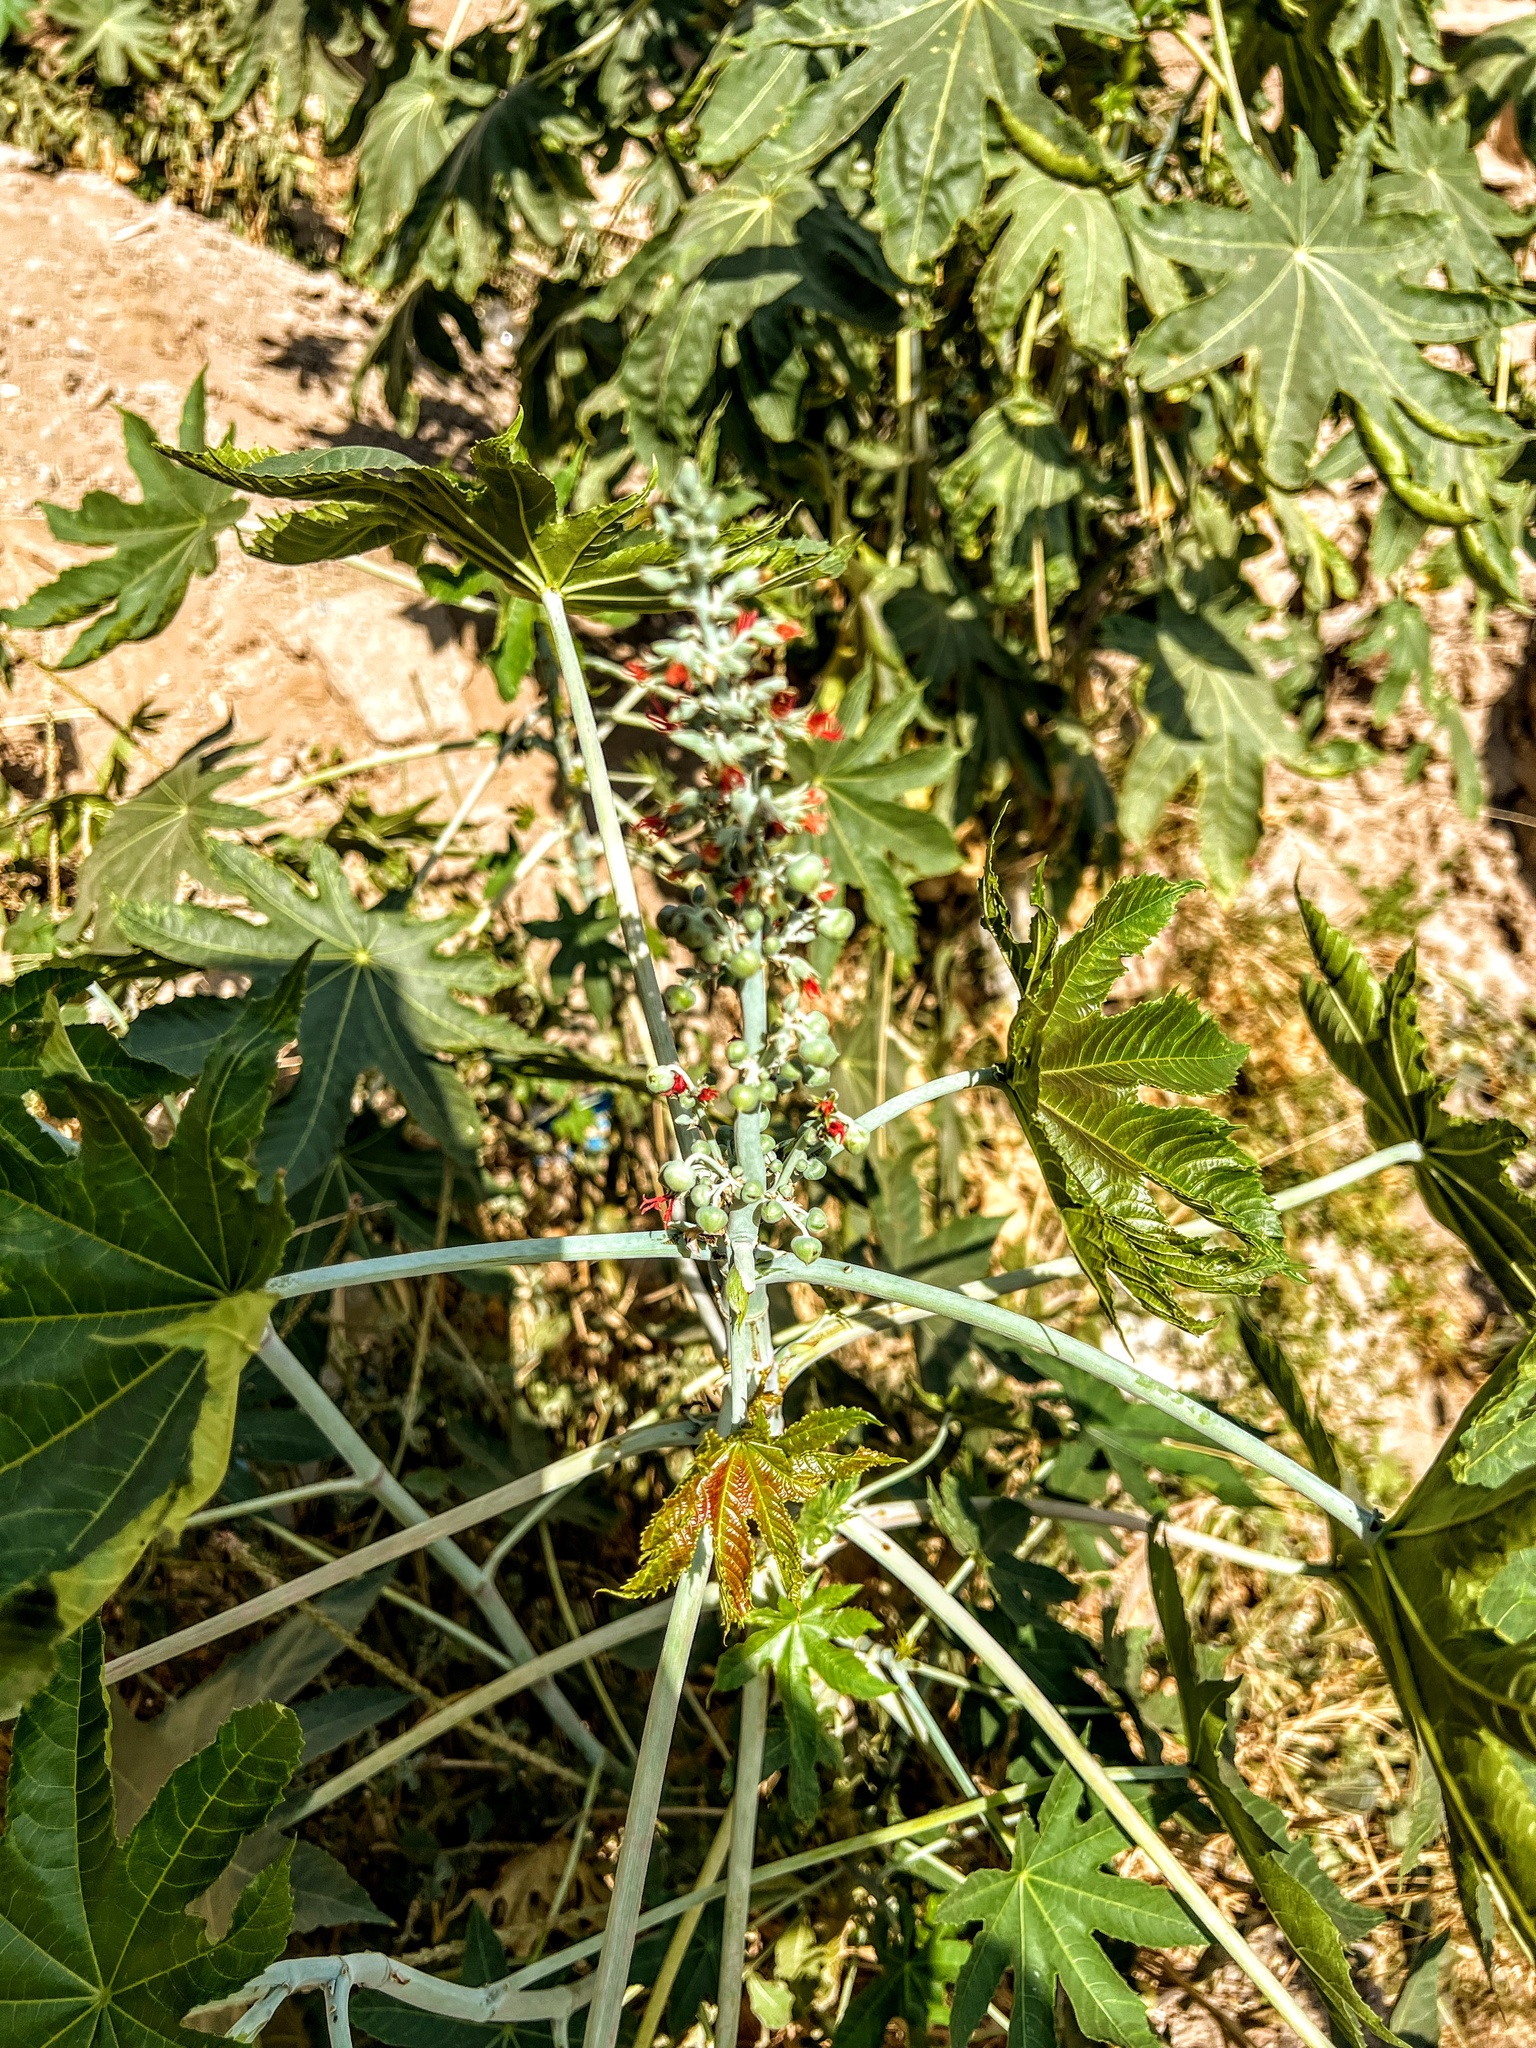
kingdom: Plantae
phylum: Tracheophyta
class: Magnoliopsida
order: Malpighiales
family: Euphorbiaceae
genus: Ricinus
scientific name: Ricinus communis
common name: Castor-oil-plant
